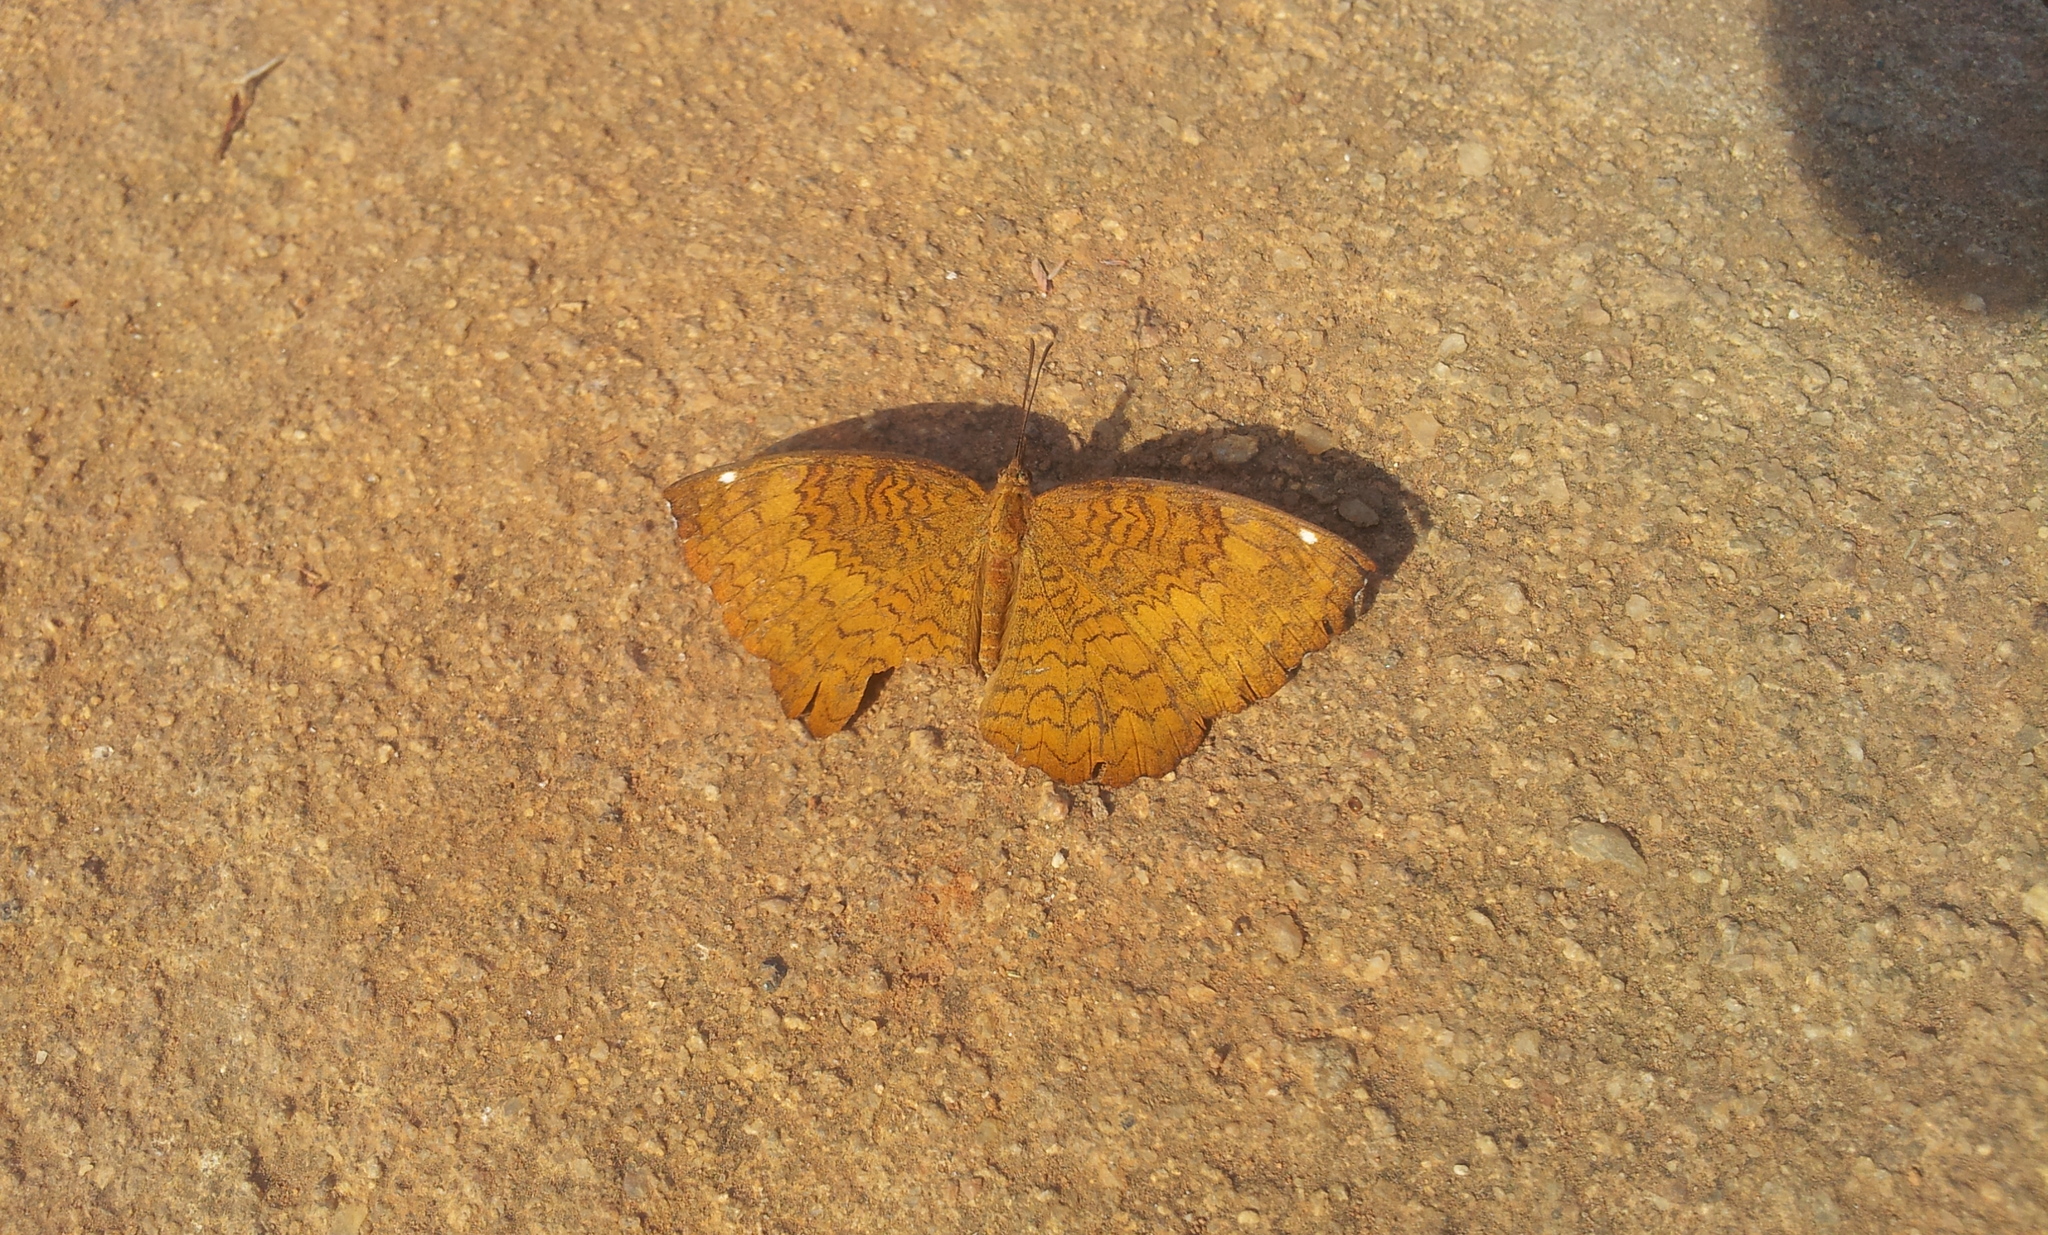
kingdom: Animalia
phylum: Arthropoda
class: Insecta
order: Lepidoptera
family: Nymphalidae
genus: Ariadne
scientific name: Ariadne merione
